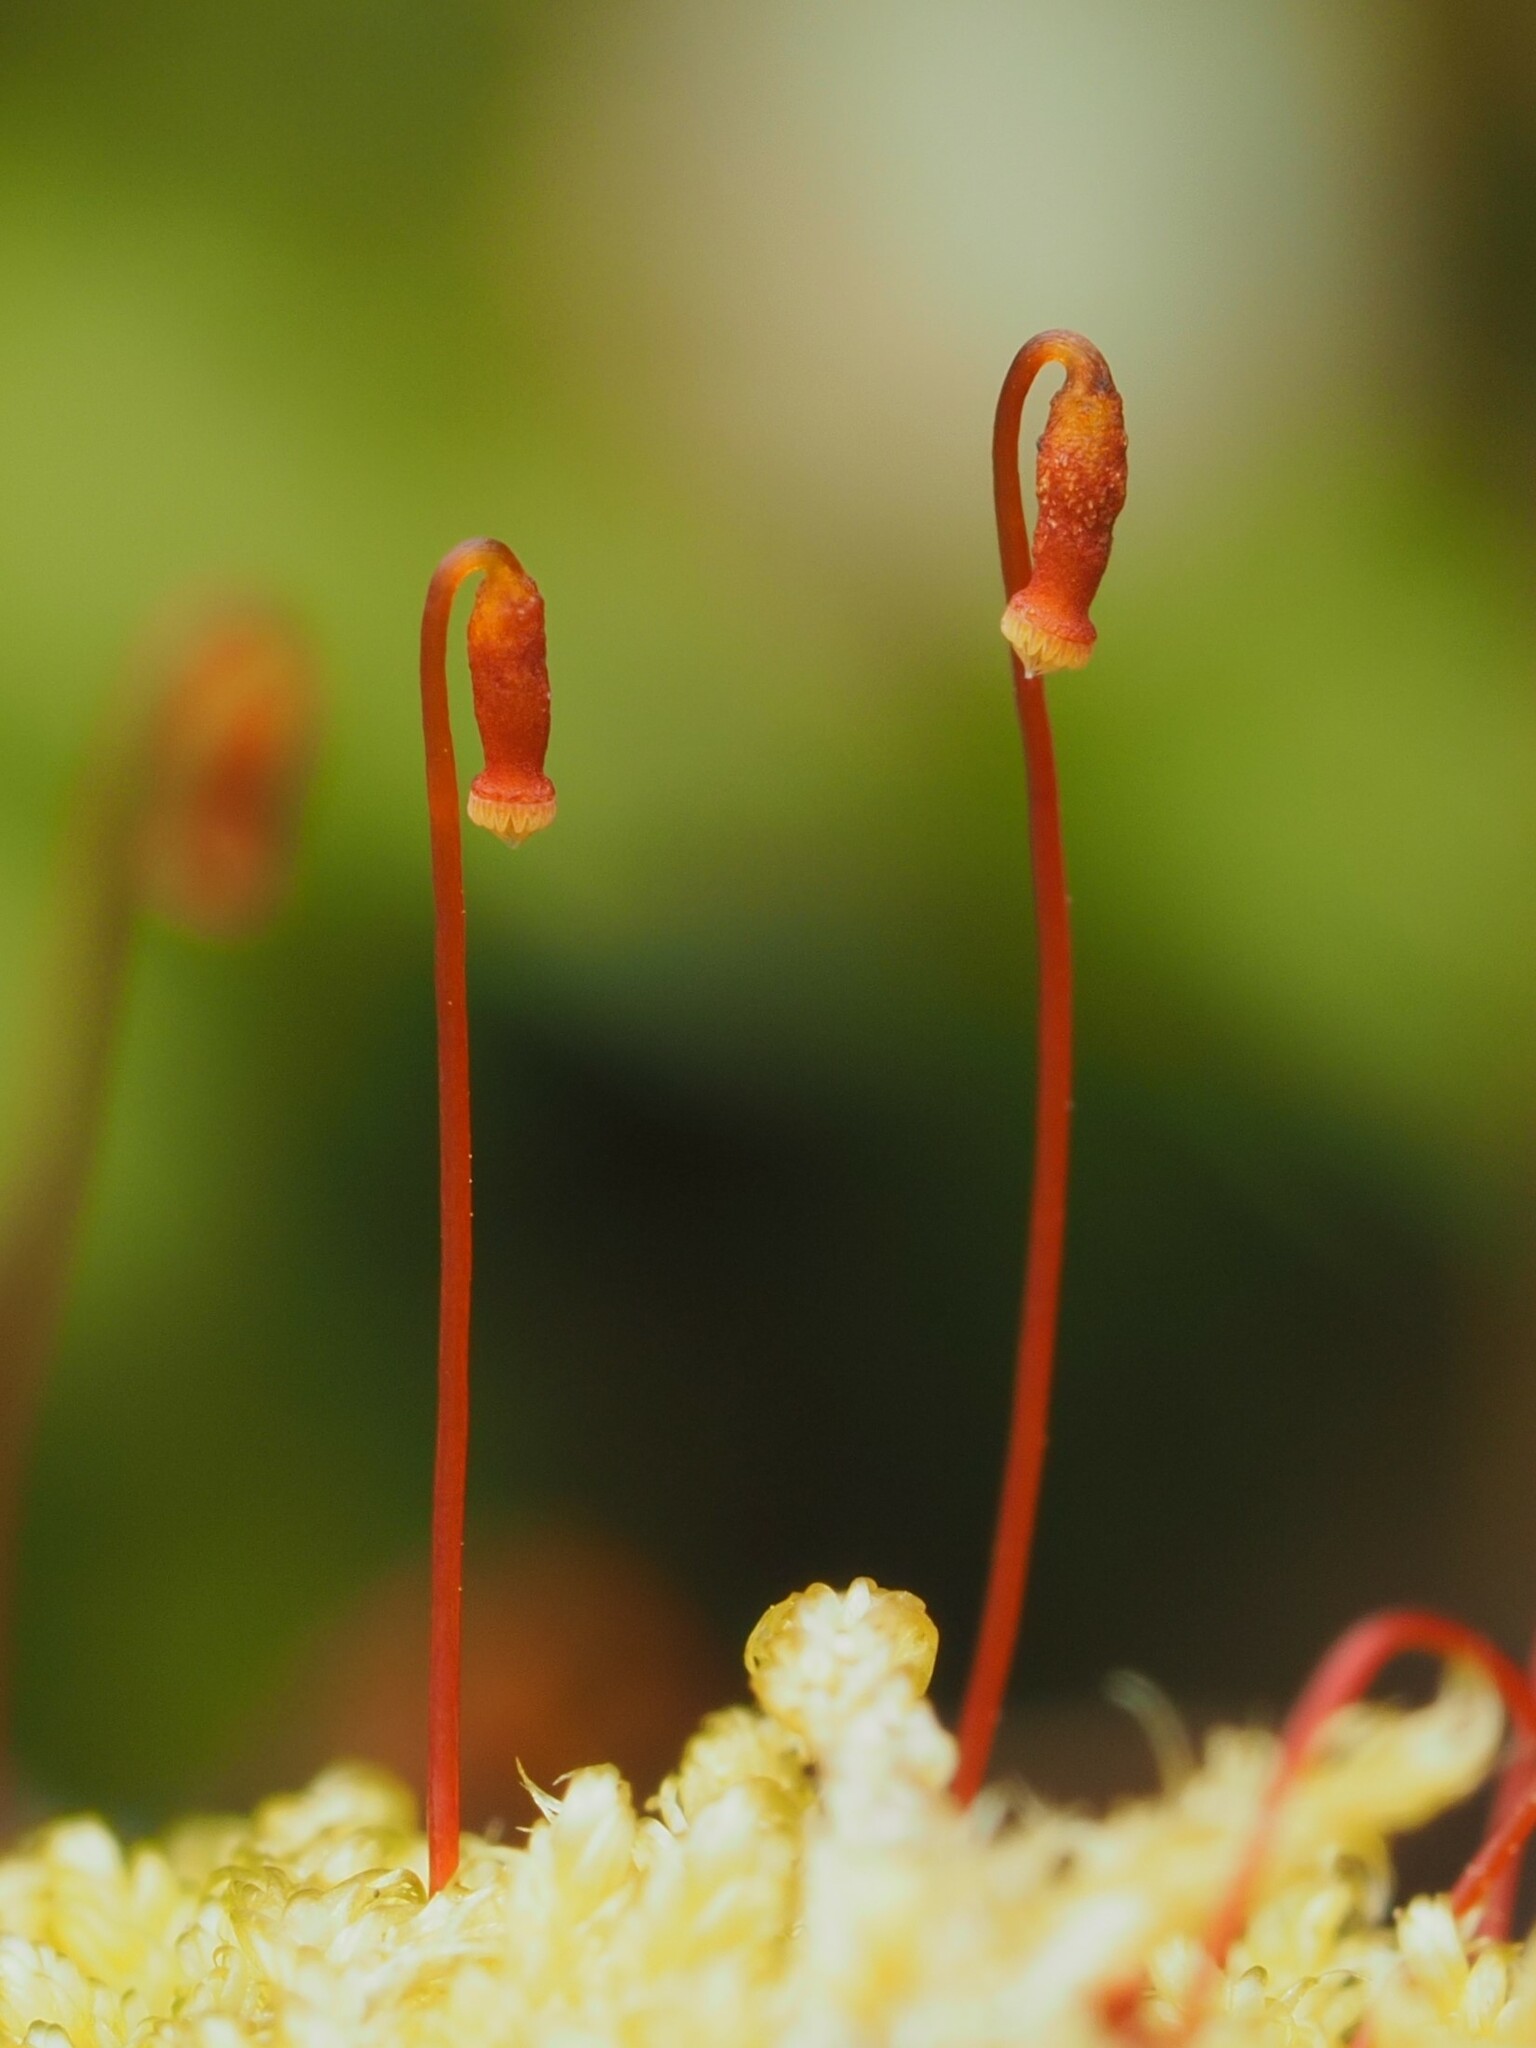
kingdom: Plantae
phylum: Bryophyta
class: Bryopsida
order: Hypnales
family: Hypnaceae
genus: Hypnum
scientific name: Hypnum cupressiforme
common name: Cypress-leaved plait-moss
